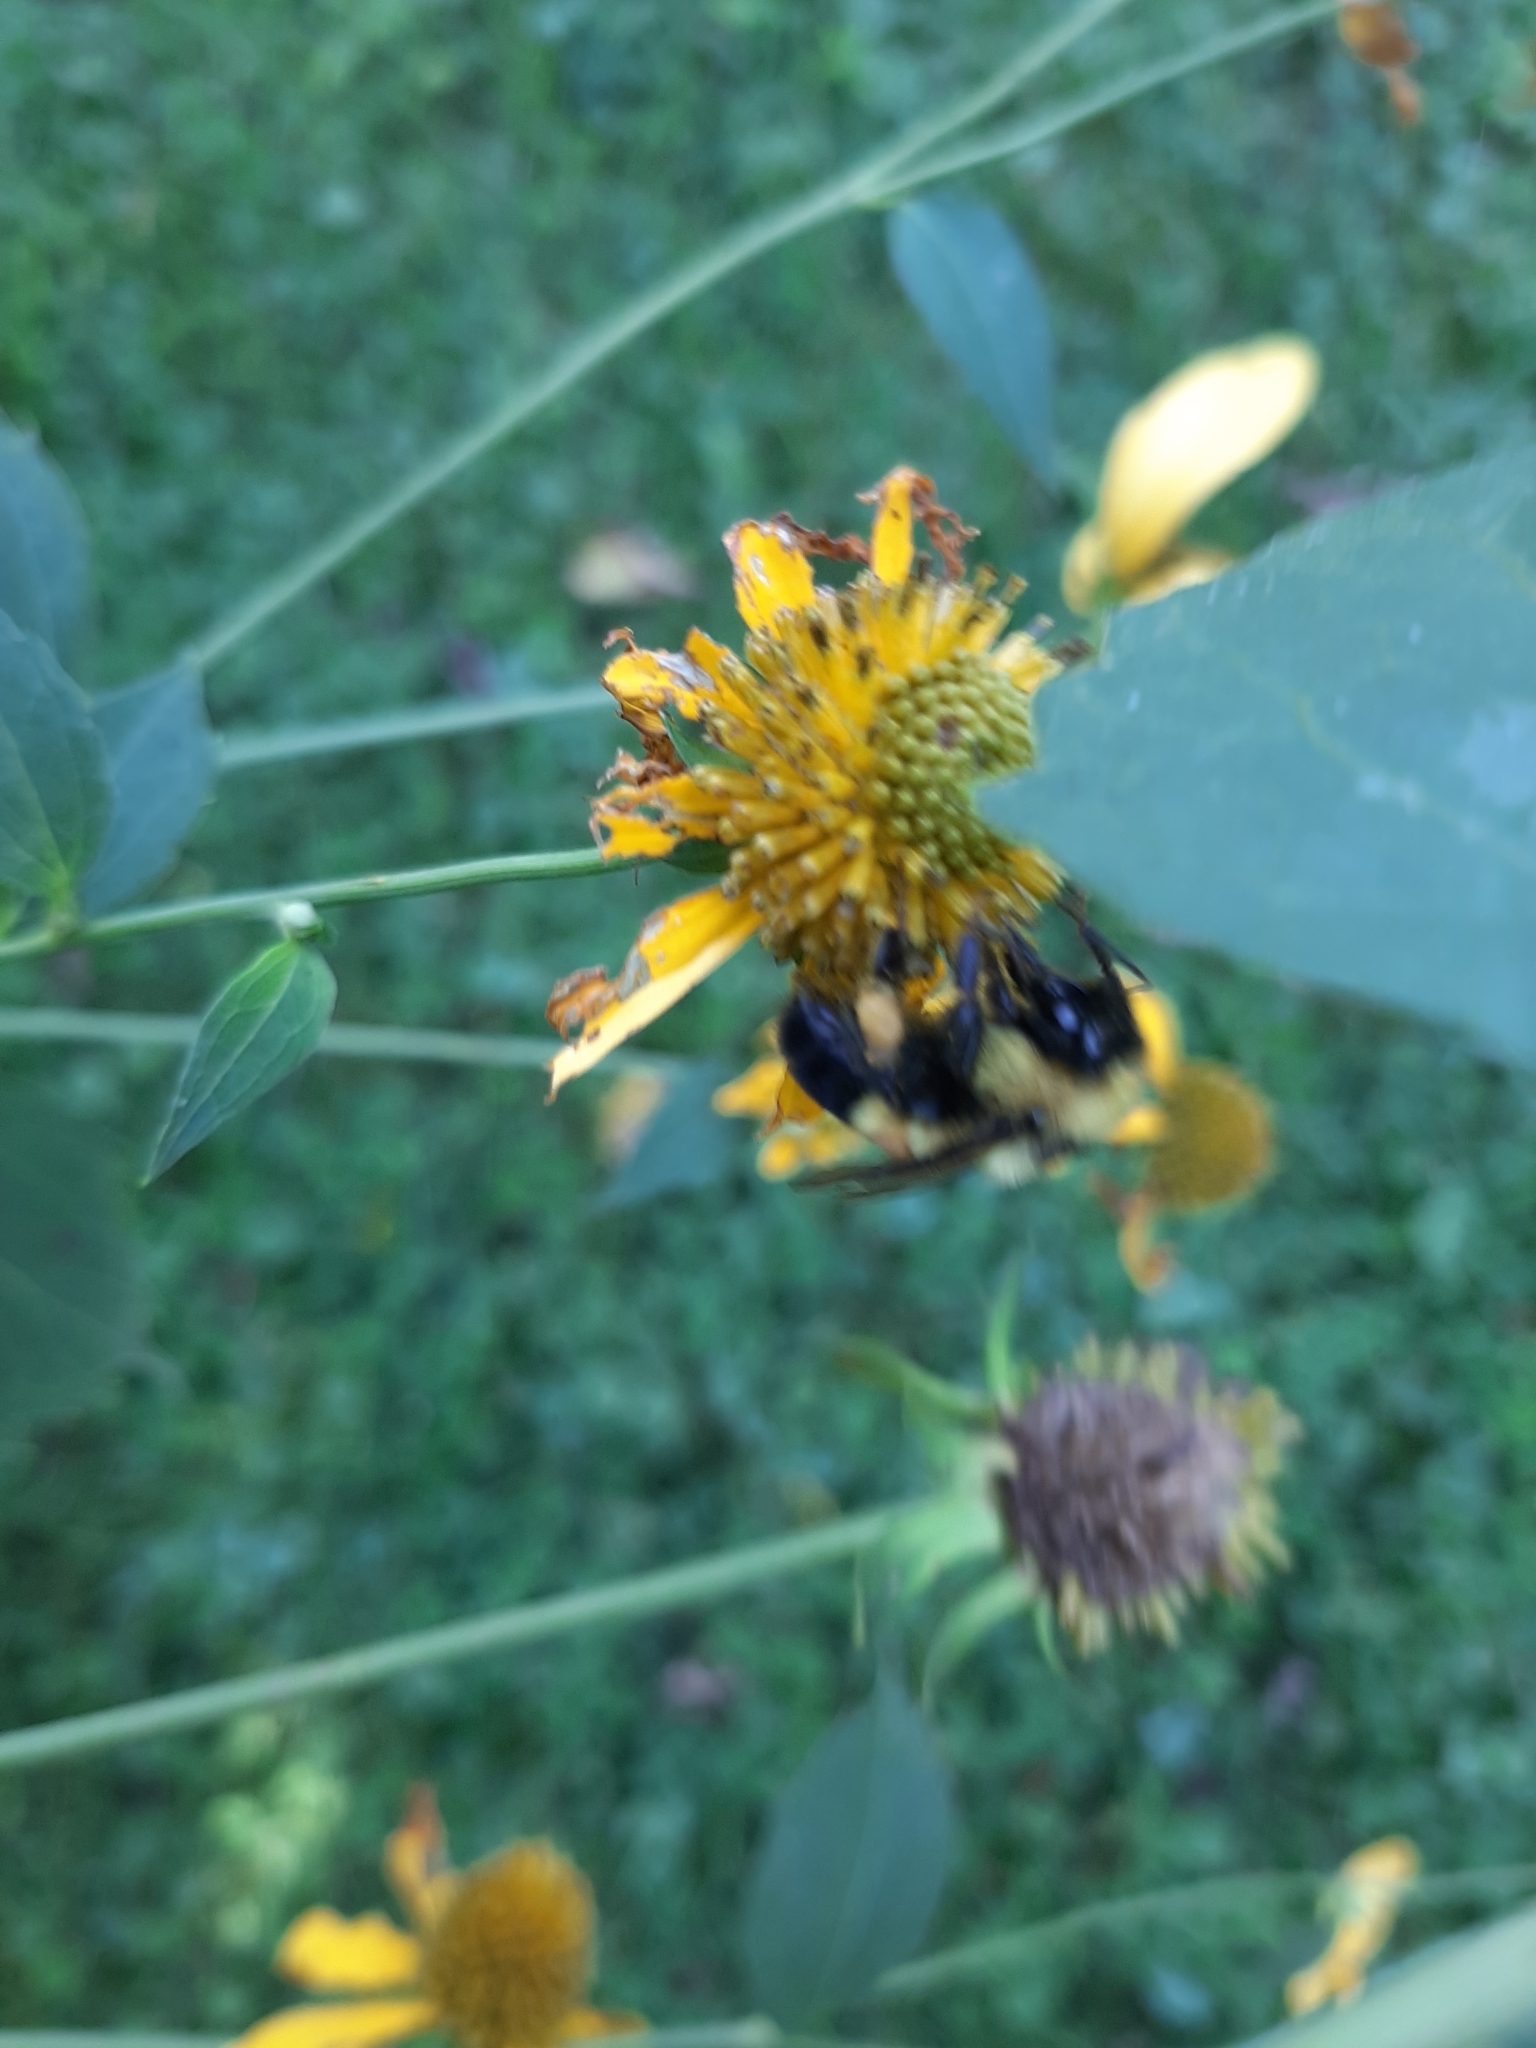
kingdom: Animalia
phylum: Arthropoda
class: Insecta
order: Hymenoptera
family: Apidae
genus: Bombus
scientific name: Bombus affinis
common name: Rusty patched bumble bee
